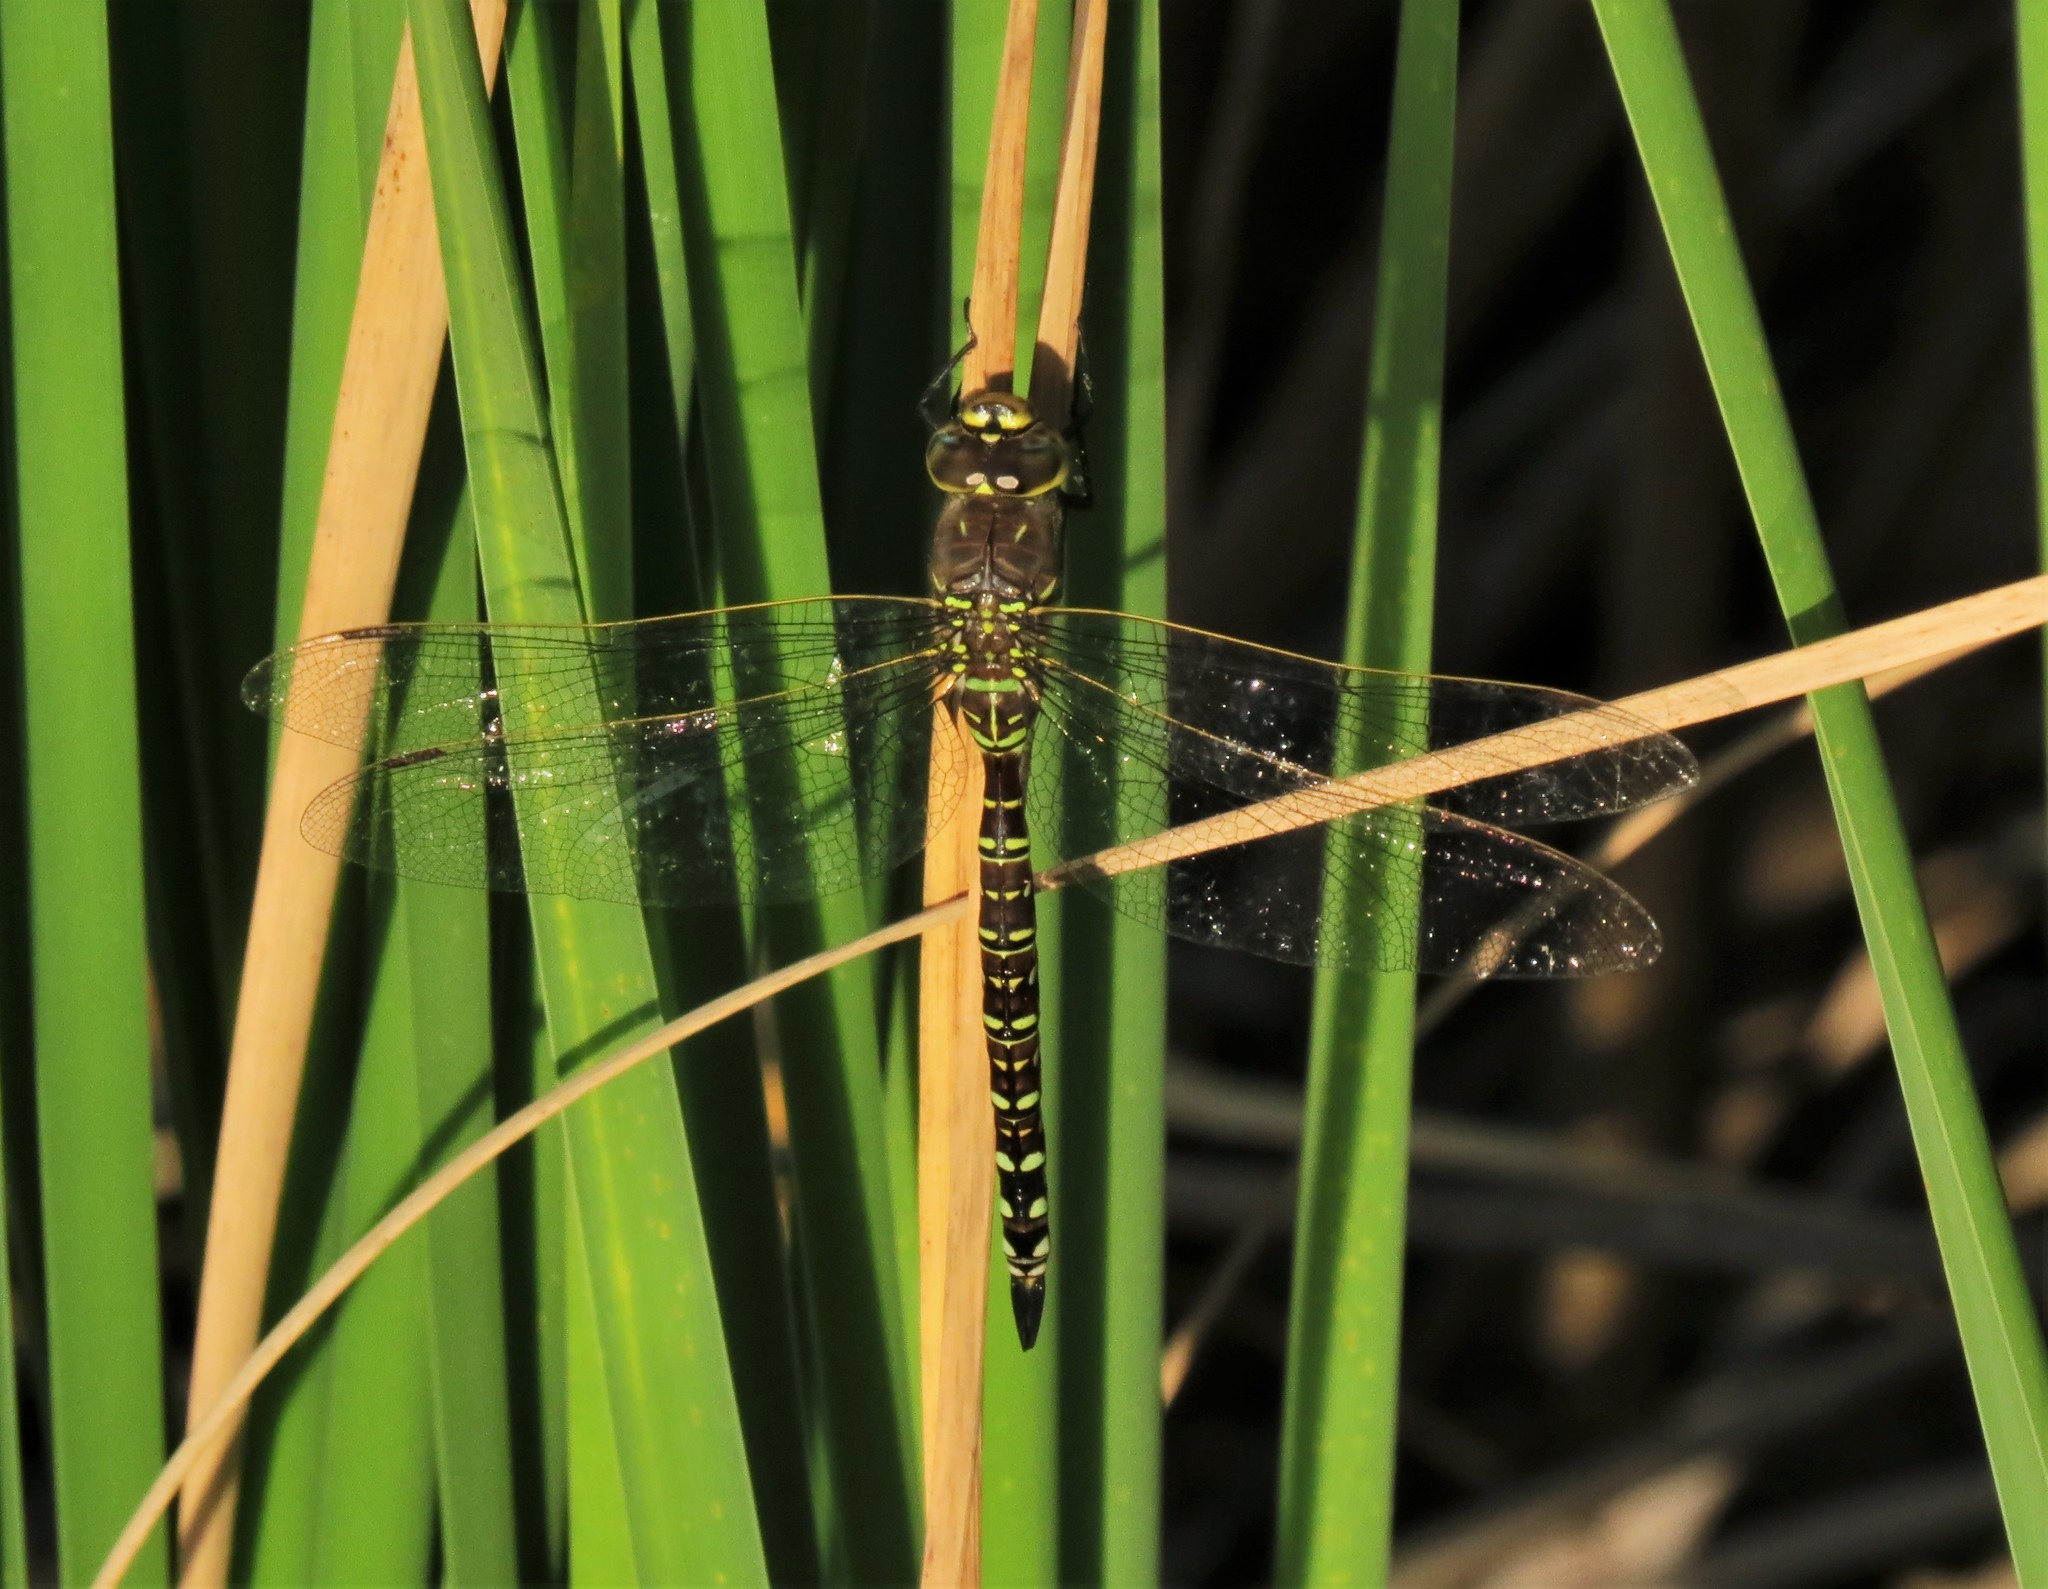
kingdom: Animalia
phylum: Arthropoda
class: Insecta
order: Odonata
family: Aeshnidae
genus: Aeshna
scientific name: Aeshna umbrosa
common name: Shadow darner
